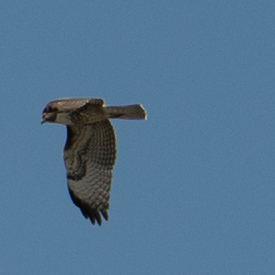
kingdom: Animalia
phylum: Chordata
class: Aves
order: Accipitriformes
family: Accipitridae
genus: Buteo
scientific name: Buteo jamaicensis
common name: Red-tailed hawk
